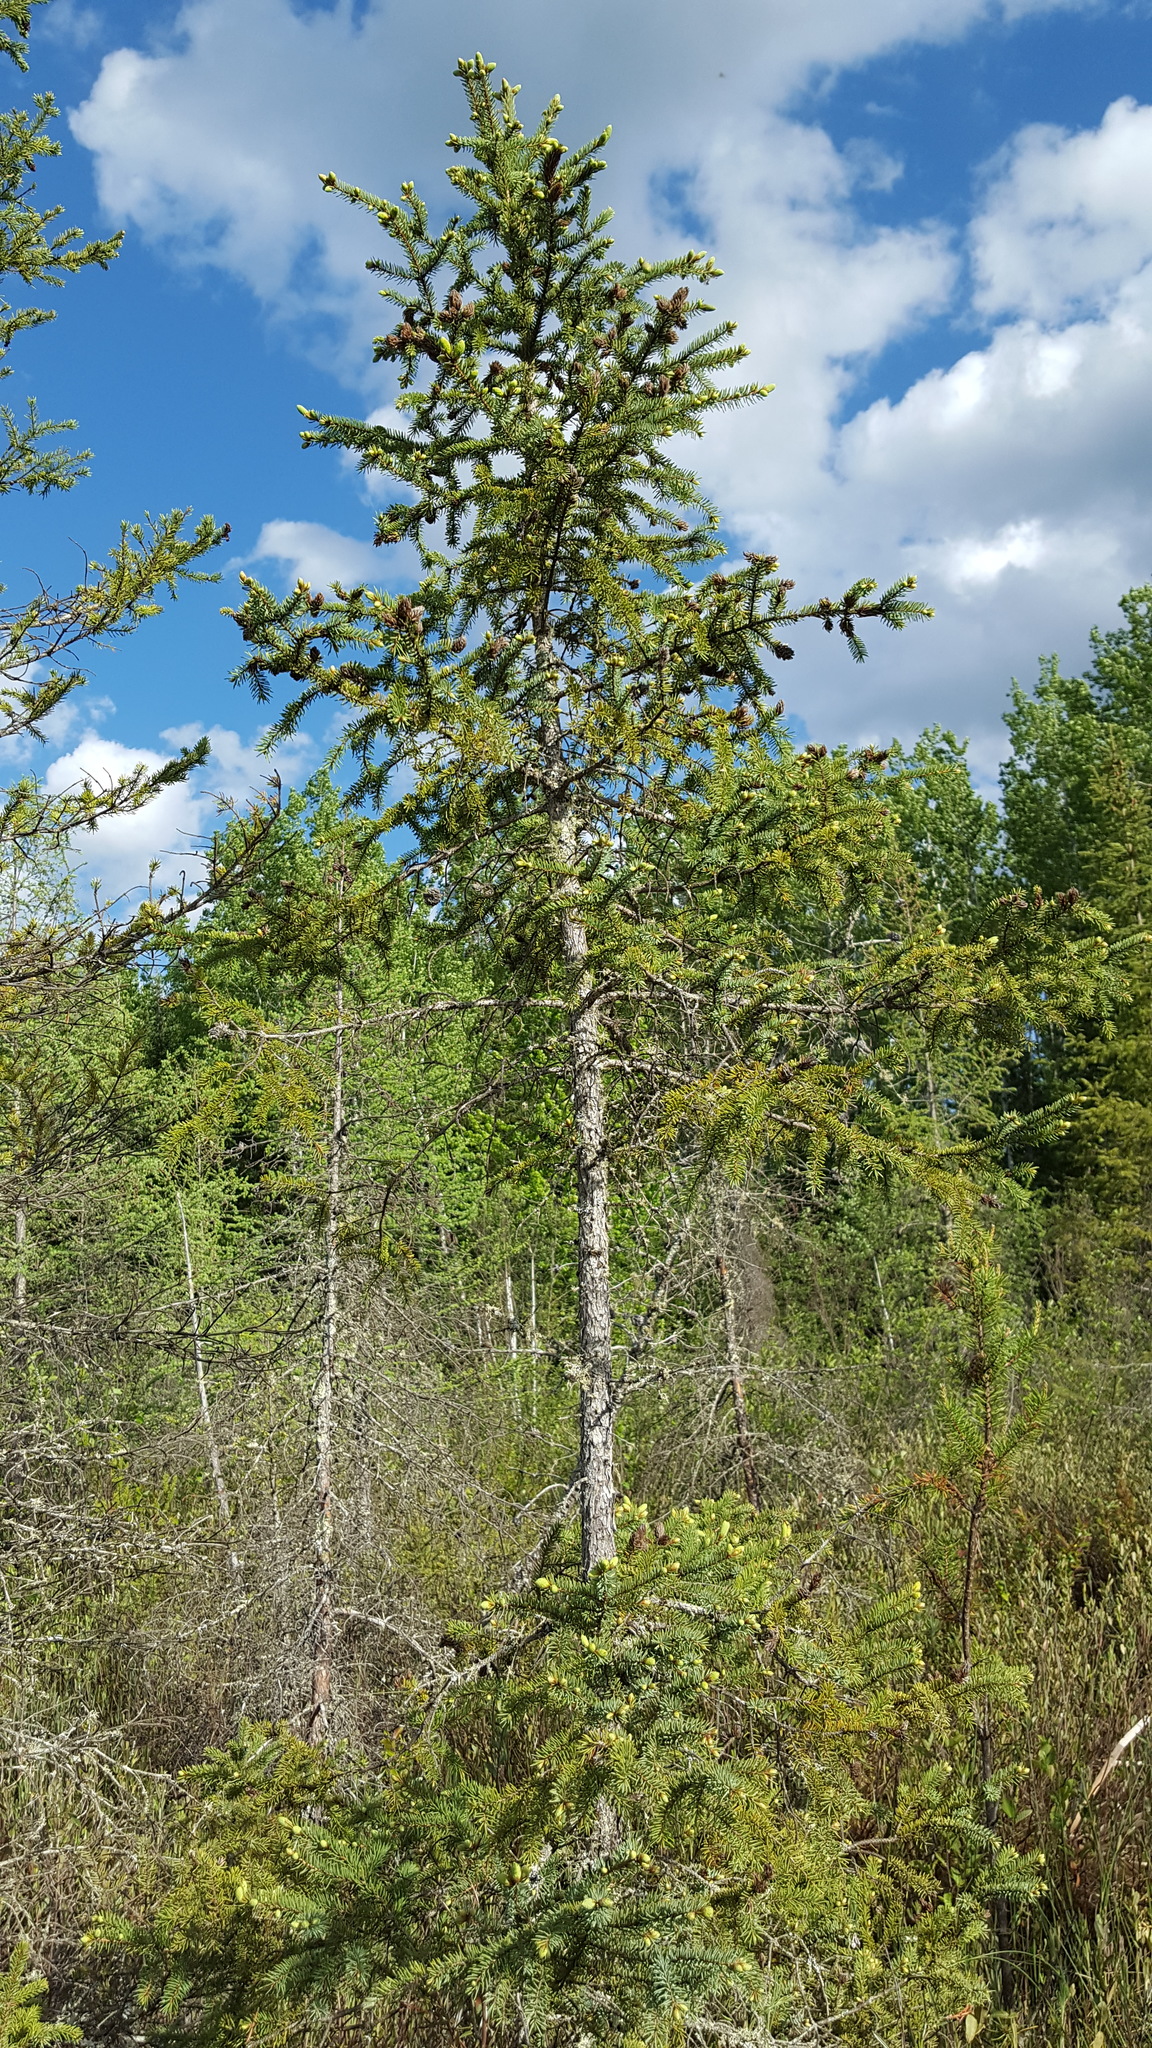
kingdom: Plantae
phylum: Tracheophyta
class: Pinopsida
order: Pinales
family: Pinaceae
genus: Picea
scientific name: Picea mariana
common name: Black spruce
